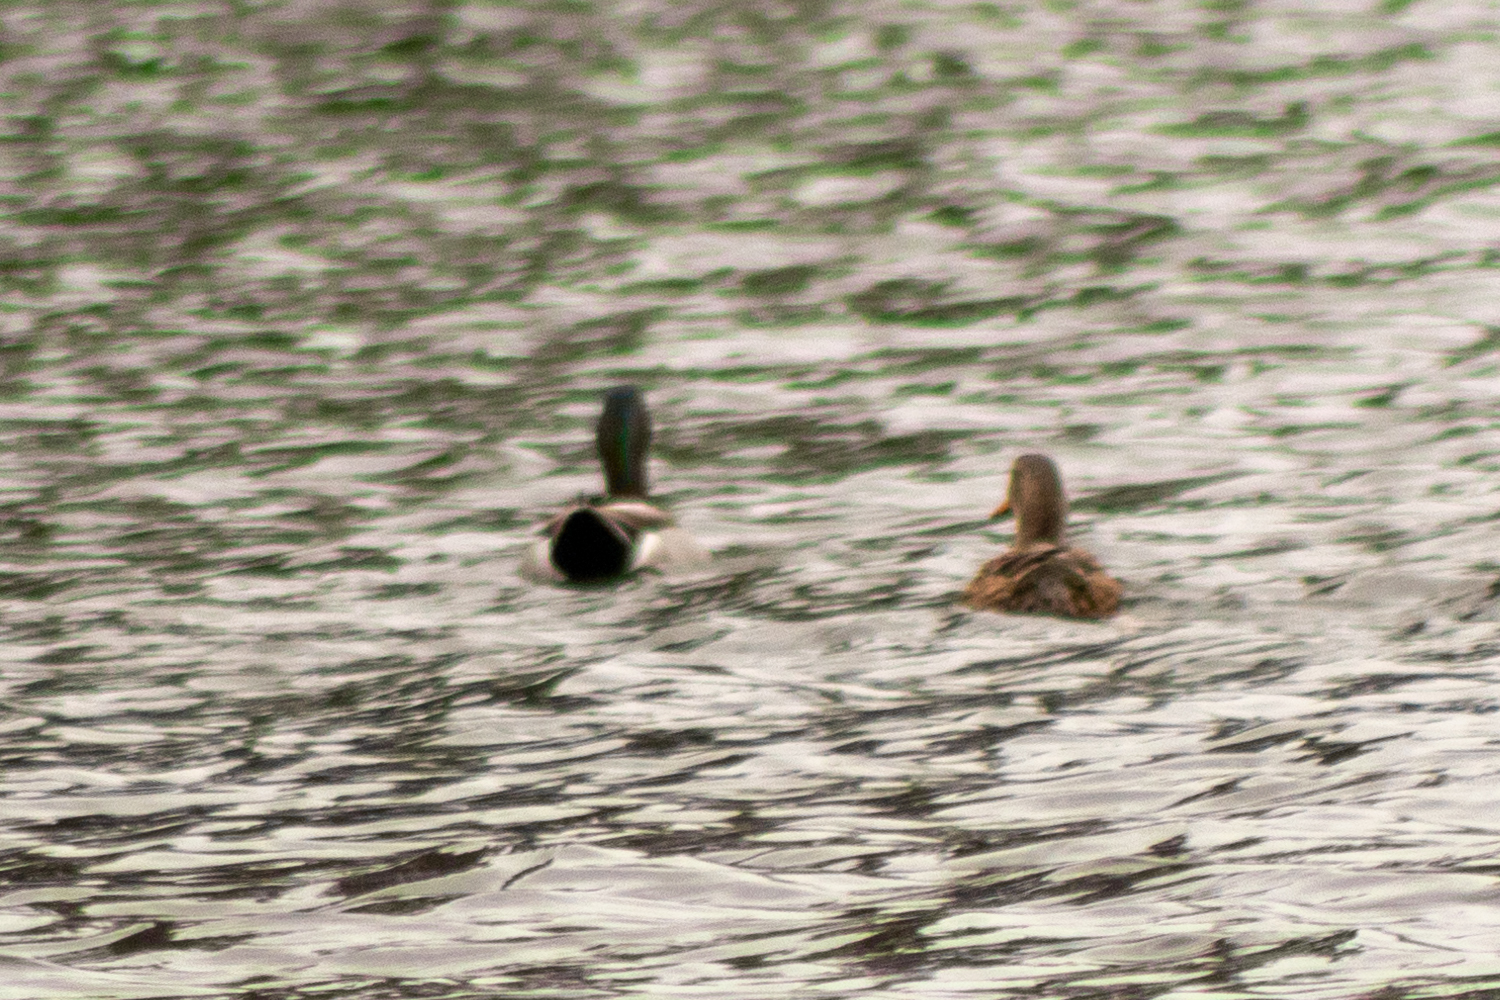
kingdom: Animalia
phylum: Chordata
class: Aves
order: Anseriformes
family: Anatidae
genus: Anas
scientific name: Anas platyrhynchos
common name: Mallard
